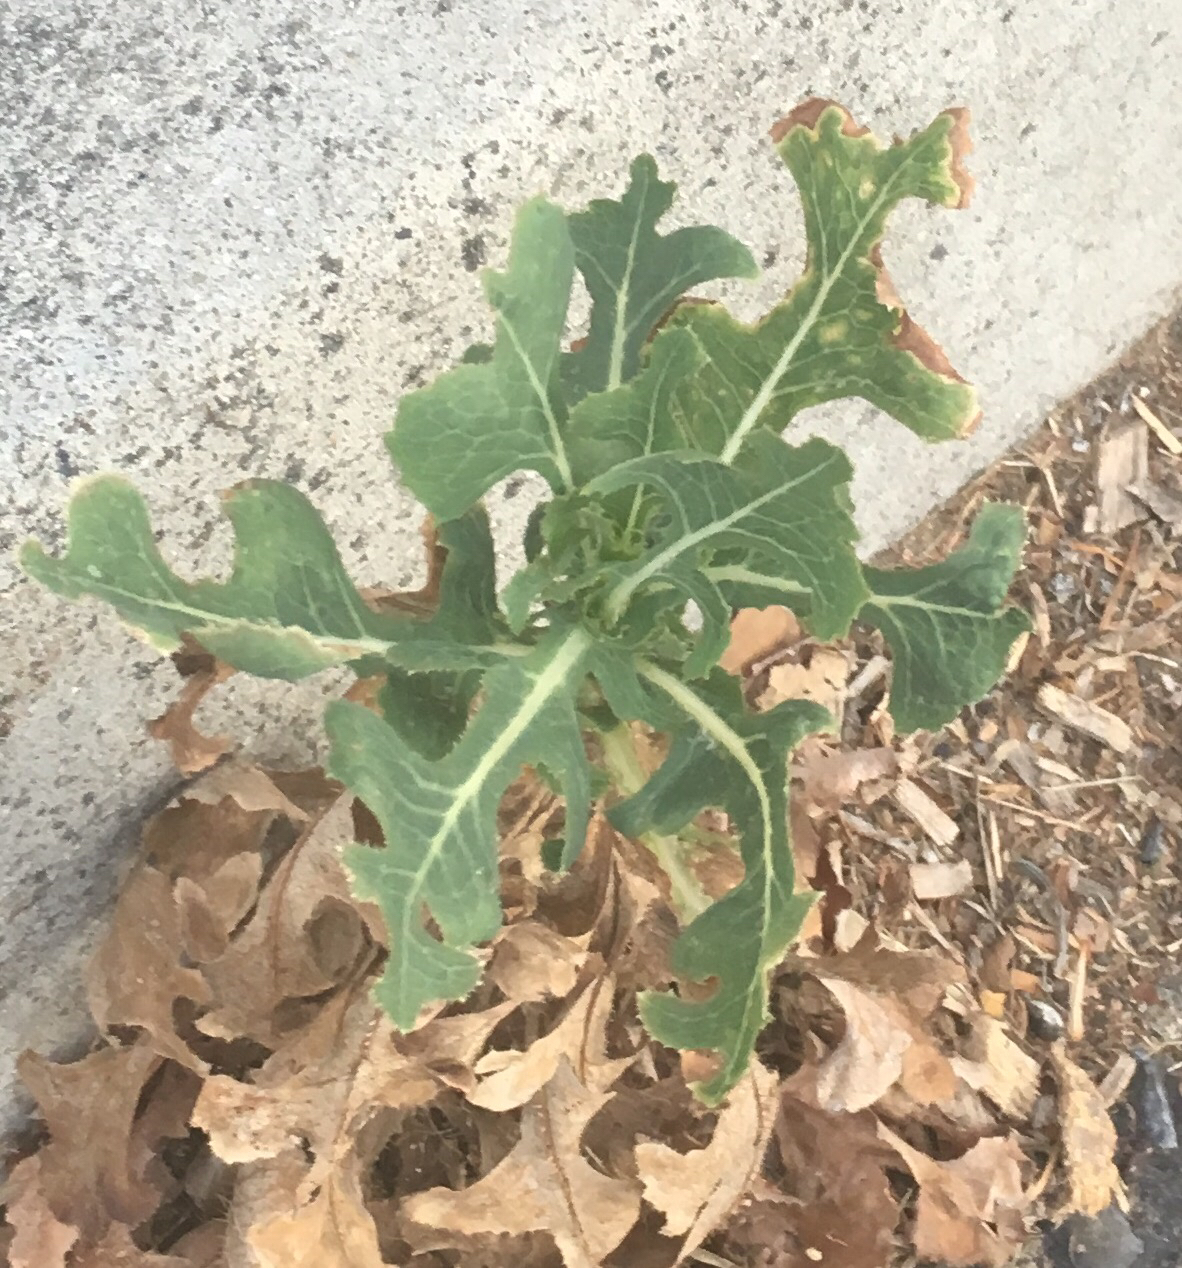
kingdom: Plantae
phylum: Tracheophyta
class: Magnoliopsida
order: Asterales
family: Asteraceae
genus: Lactuca
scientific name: Lactuca serriola
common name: Prickly lettuce
